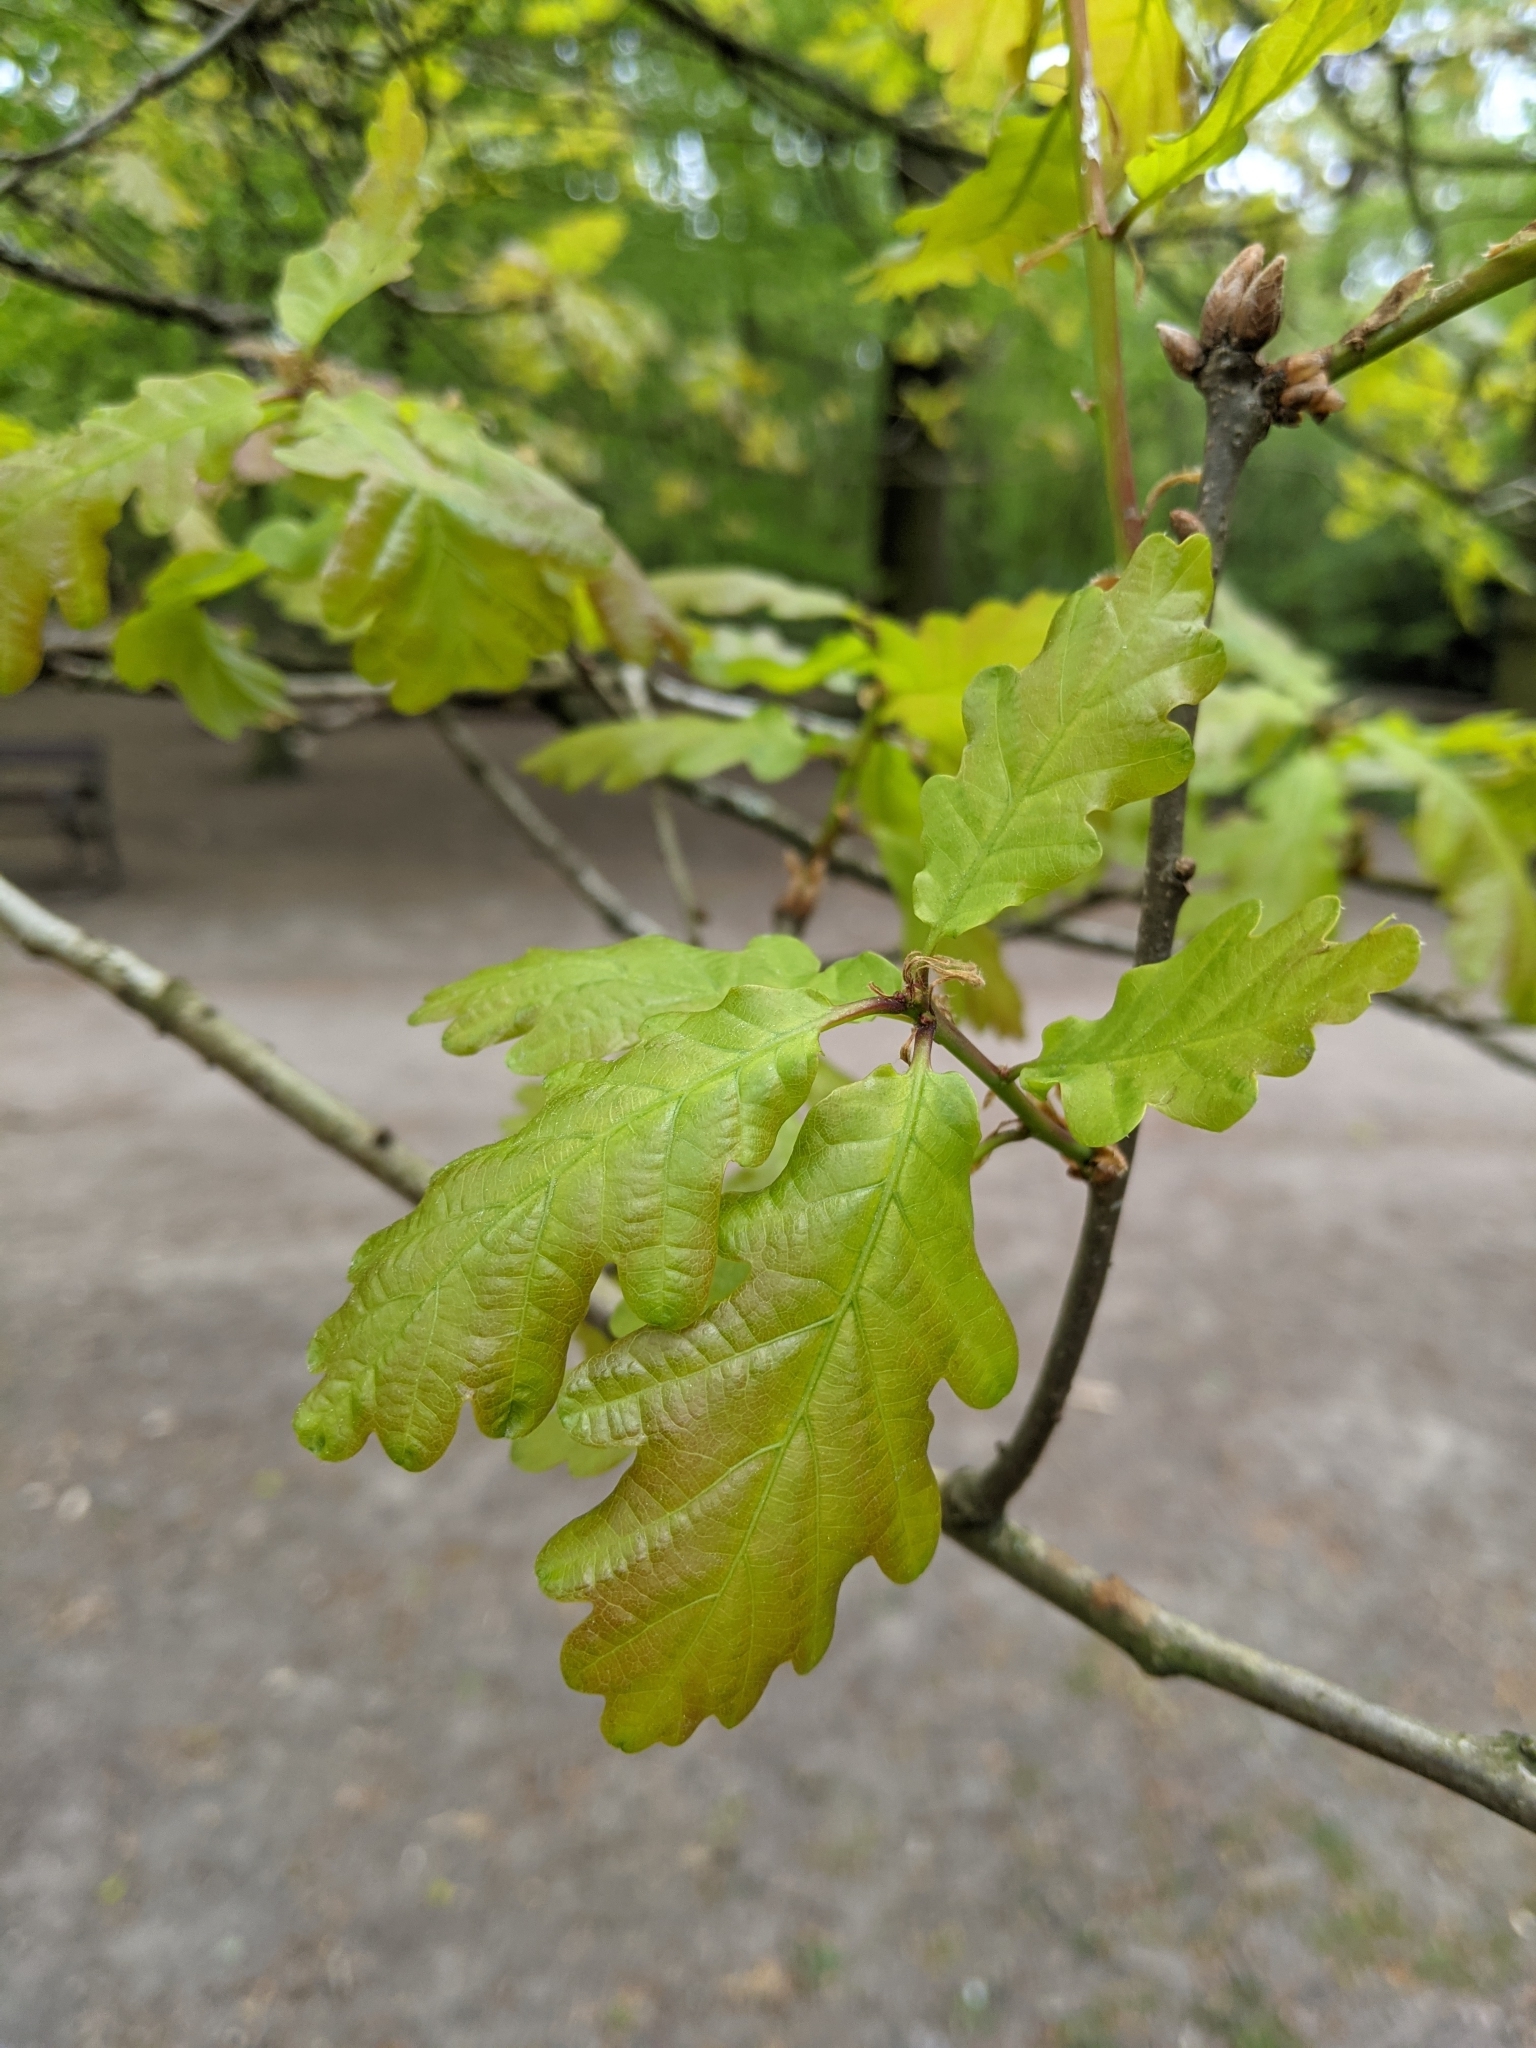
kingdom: Plantae
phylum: Tracheophyta
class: Magnoliopsida
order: Fagales
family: Fagaceae
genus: Quercus
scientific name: Quercus robur
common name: Pedunculate oak
